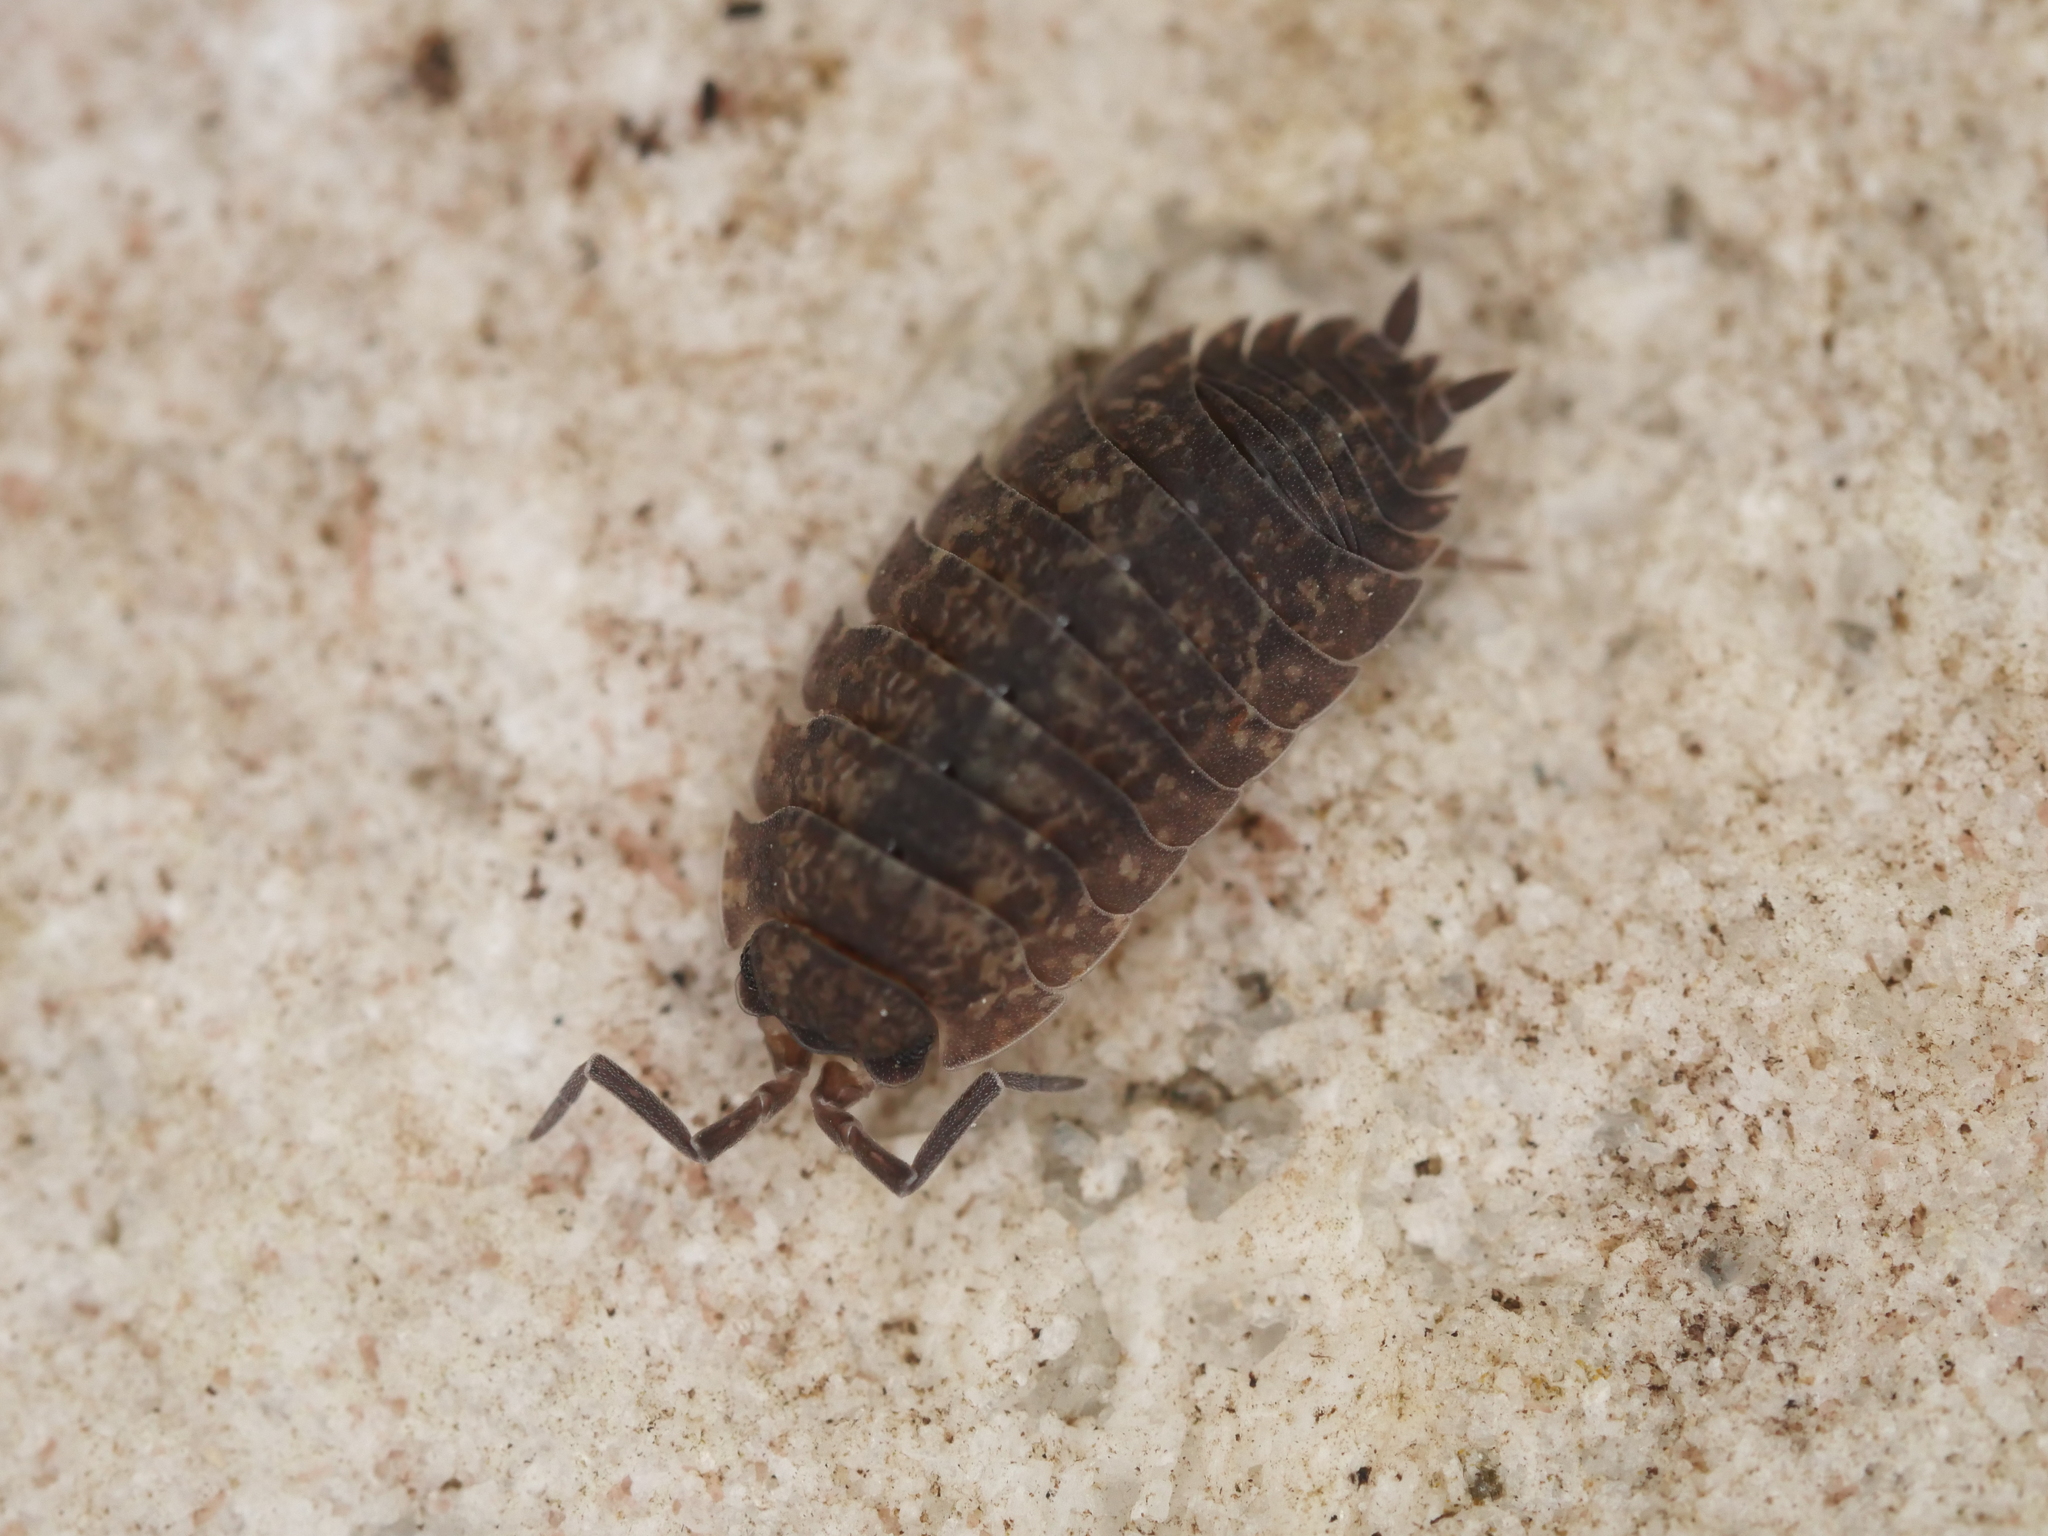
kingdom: Animalia
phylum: Arthropoda
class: Malacostraca
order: Isopoda
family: Porcellionidae
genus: Porcellio
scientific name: Porcellio scaber
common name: Common rough woodlouse
